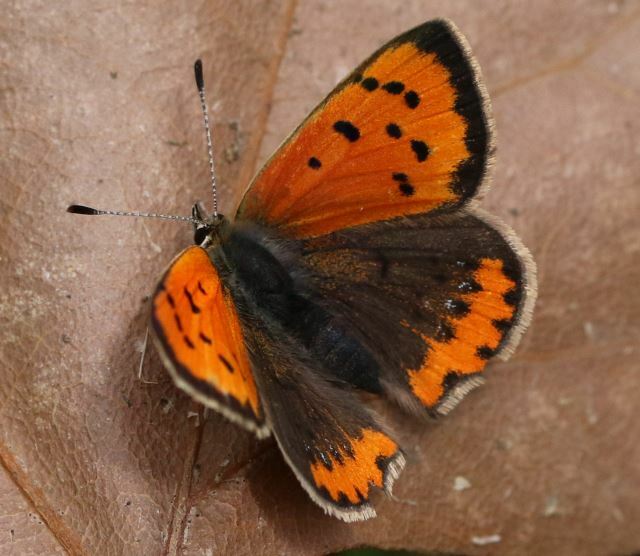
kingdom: Animalia
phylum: Arthropoda
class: Insecta
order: Lepidoptera
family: Lycaenidae
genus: Lycaena
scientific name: Lycaena phlaeas
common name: Small copper
